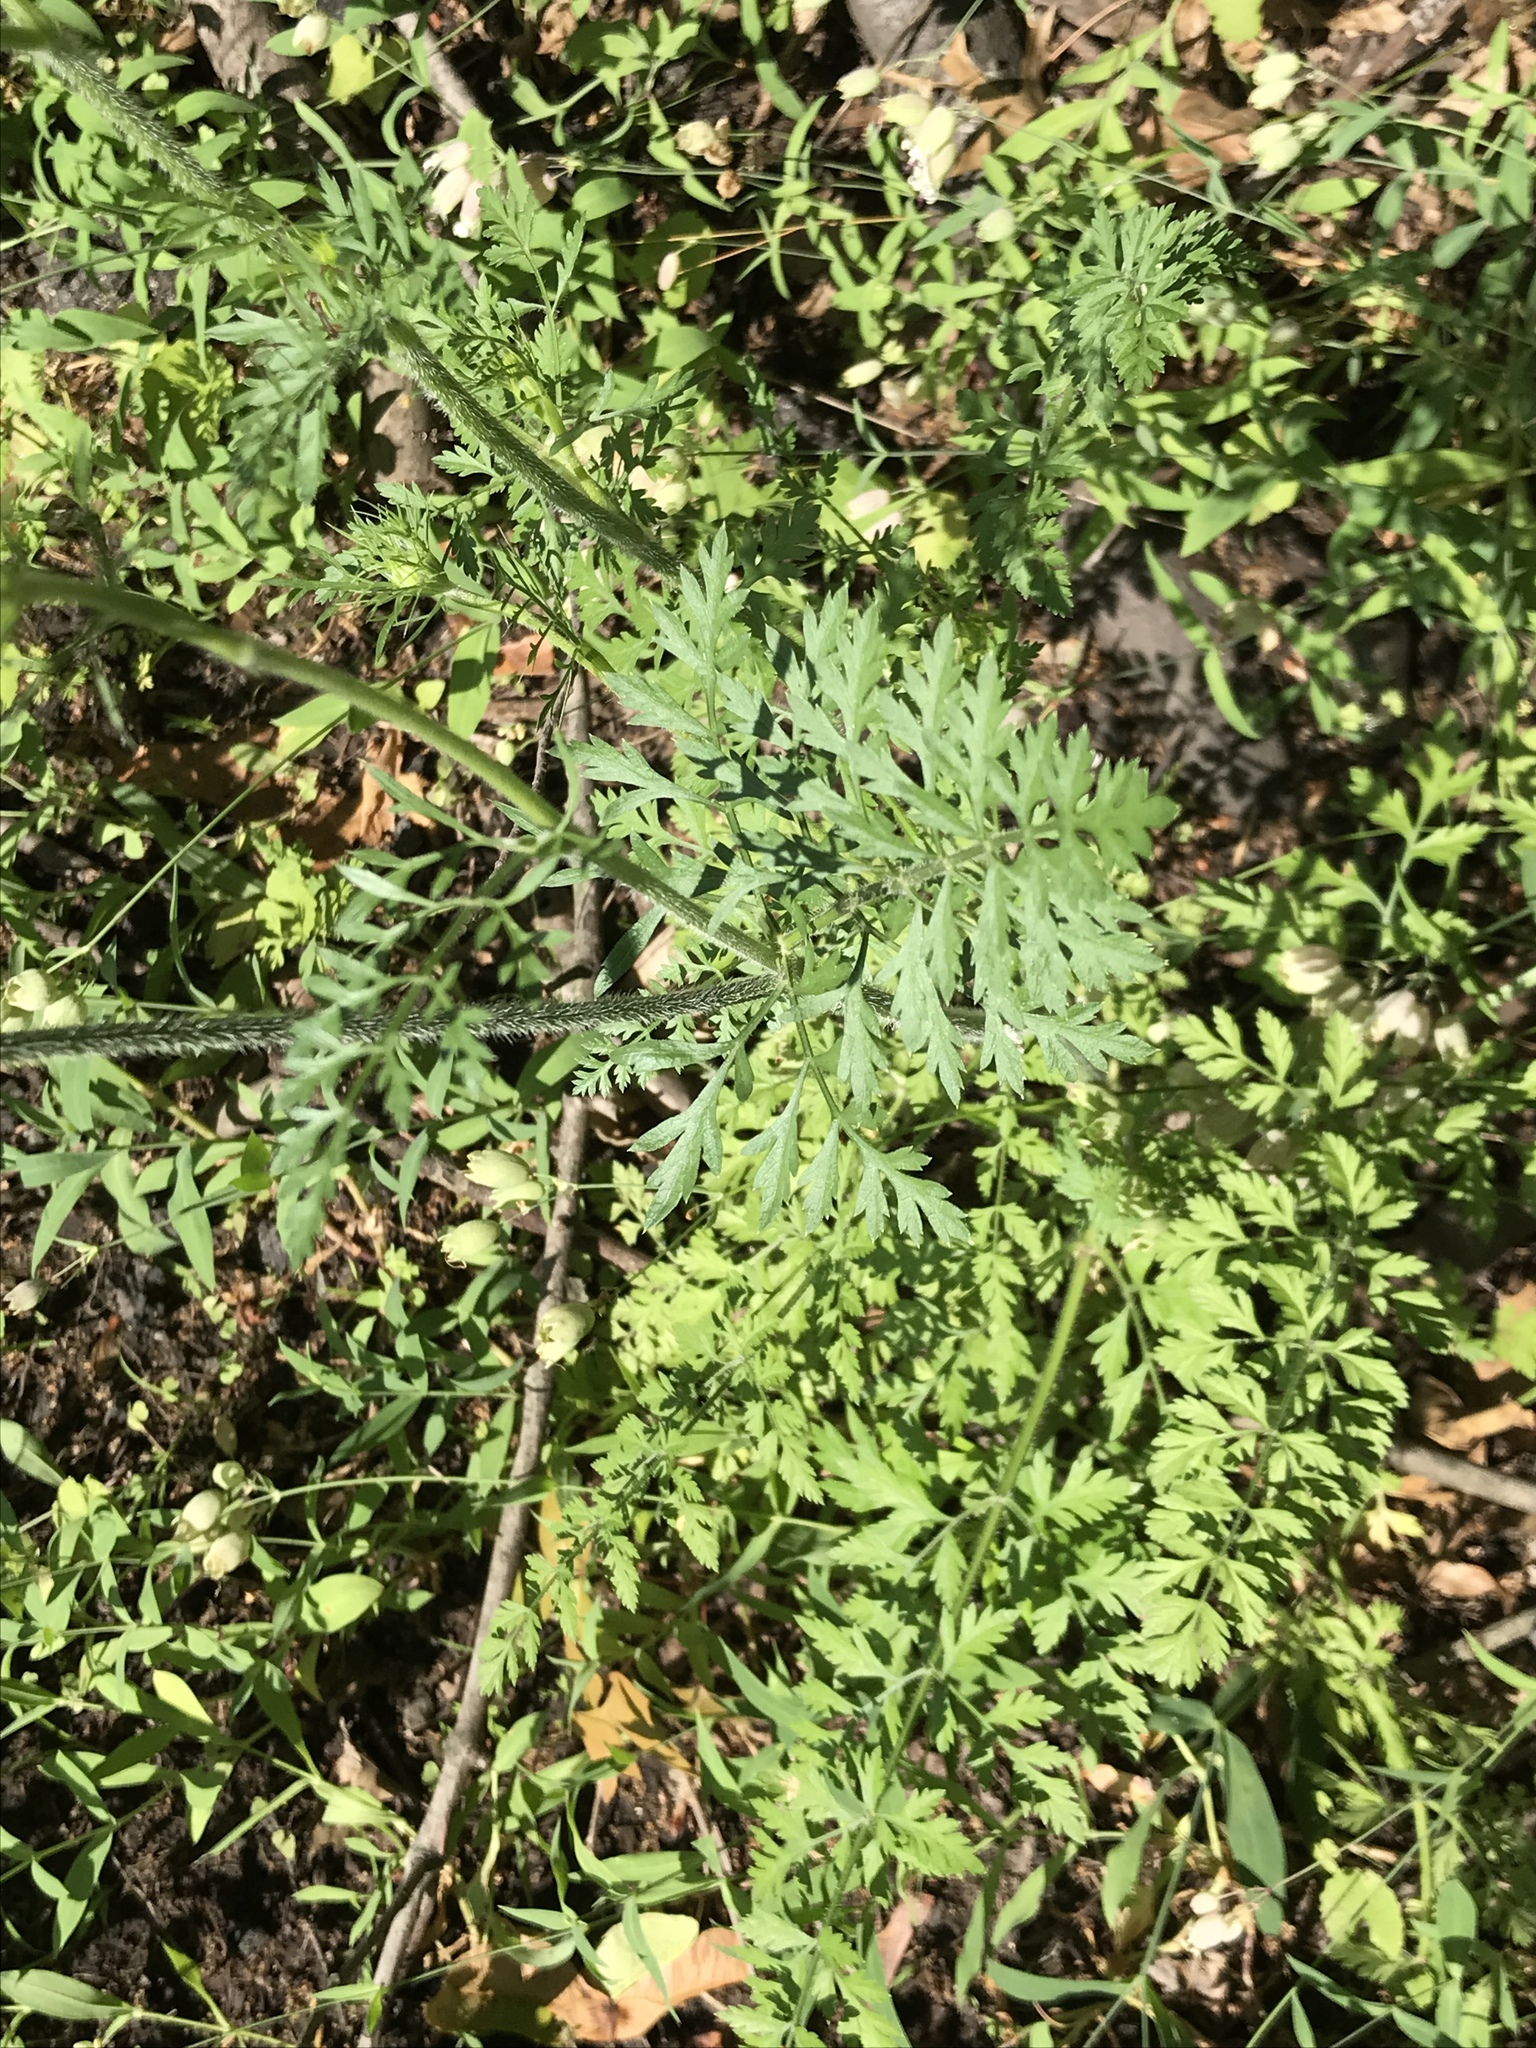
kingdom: Plantae
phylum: Tracheophyta
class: Magnoliopsida
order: Apiales
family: Apiaceae
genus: Daucus
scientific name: Daucus carota
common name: Wild carrot
